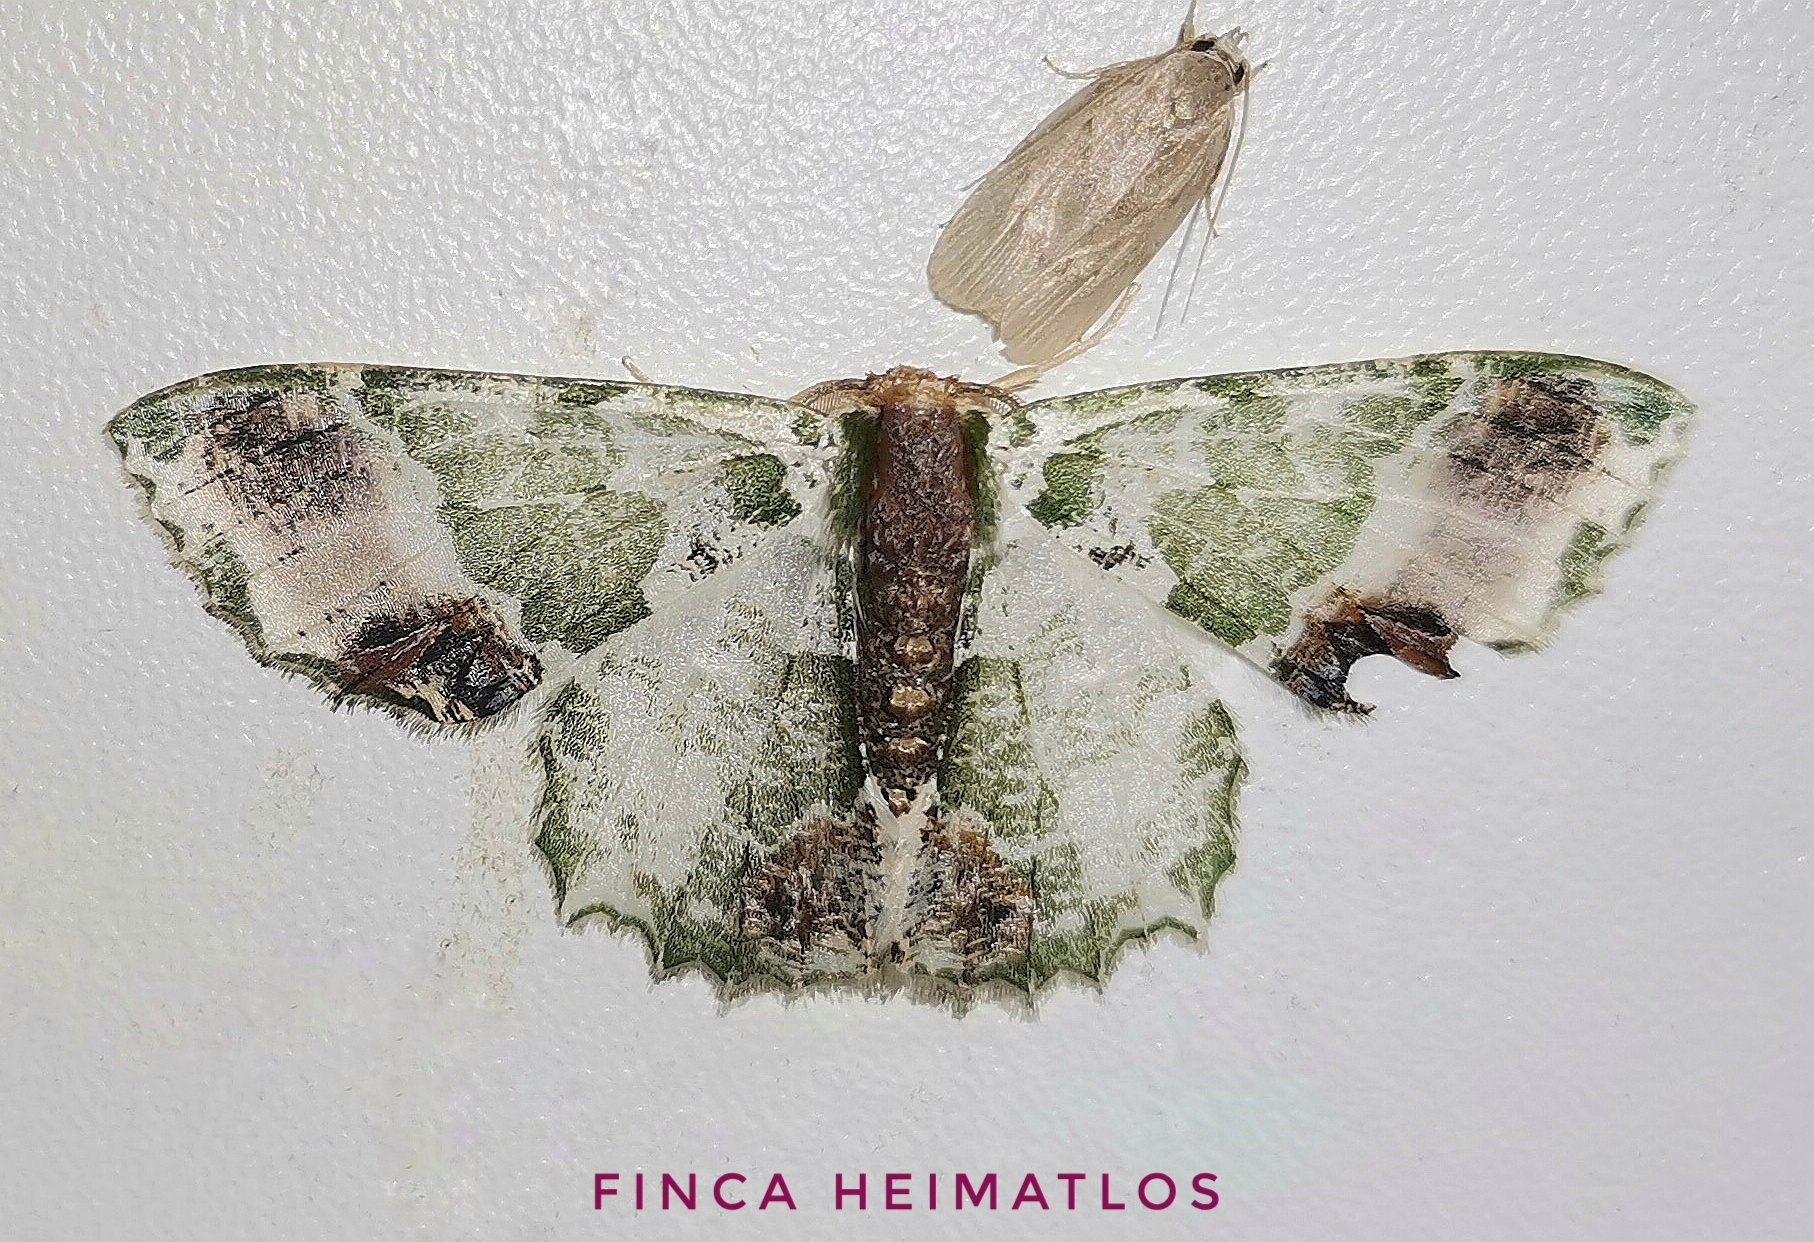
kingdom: Animalia
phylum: Arthropoda
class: Insecta
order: Lepidoptera
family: Geometridae
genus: Lophochorista
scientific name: Lophochorista ockendeni
